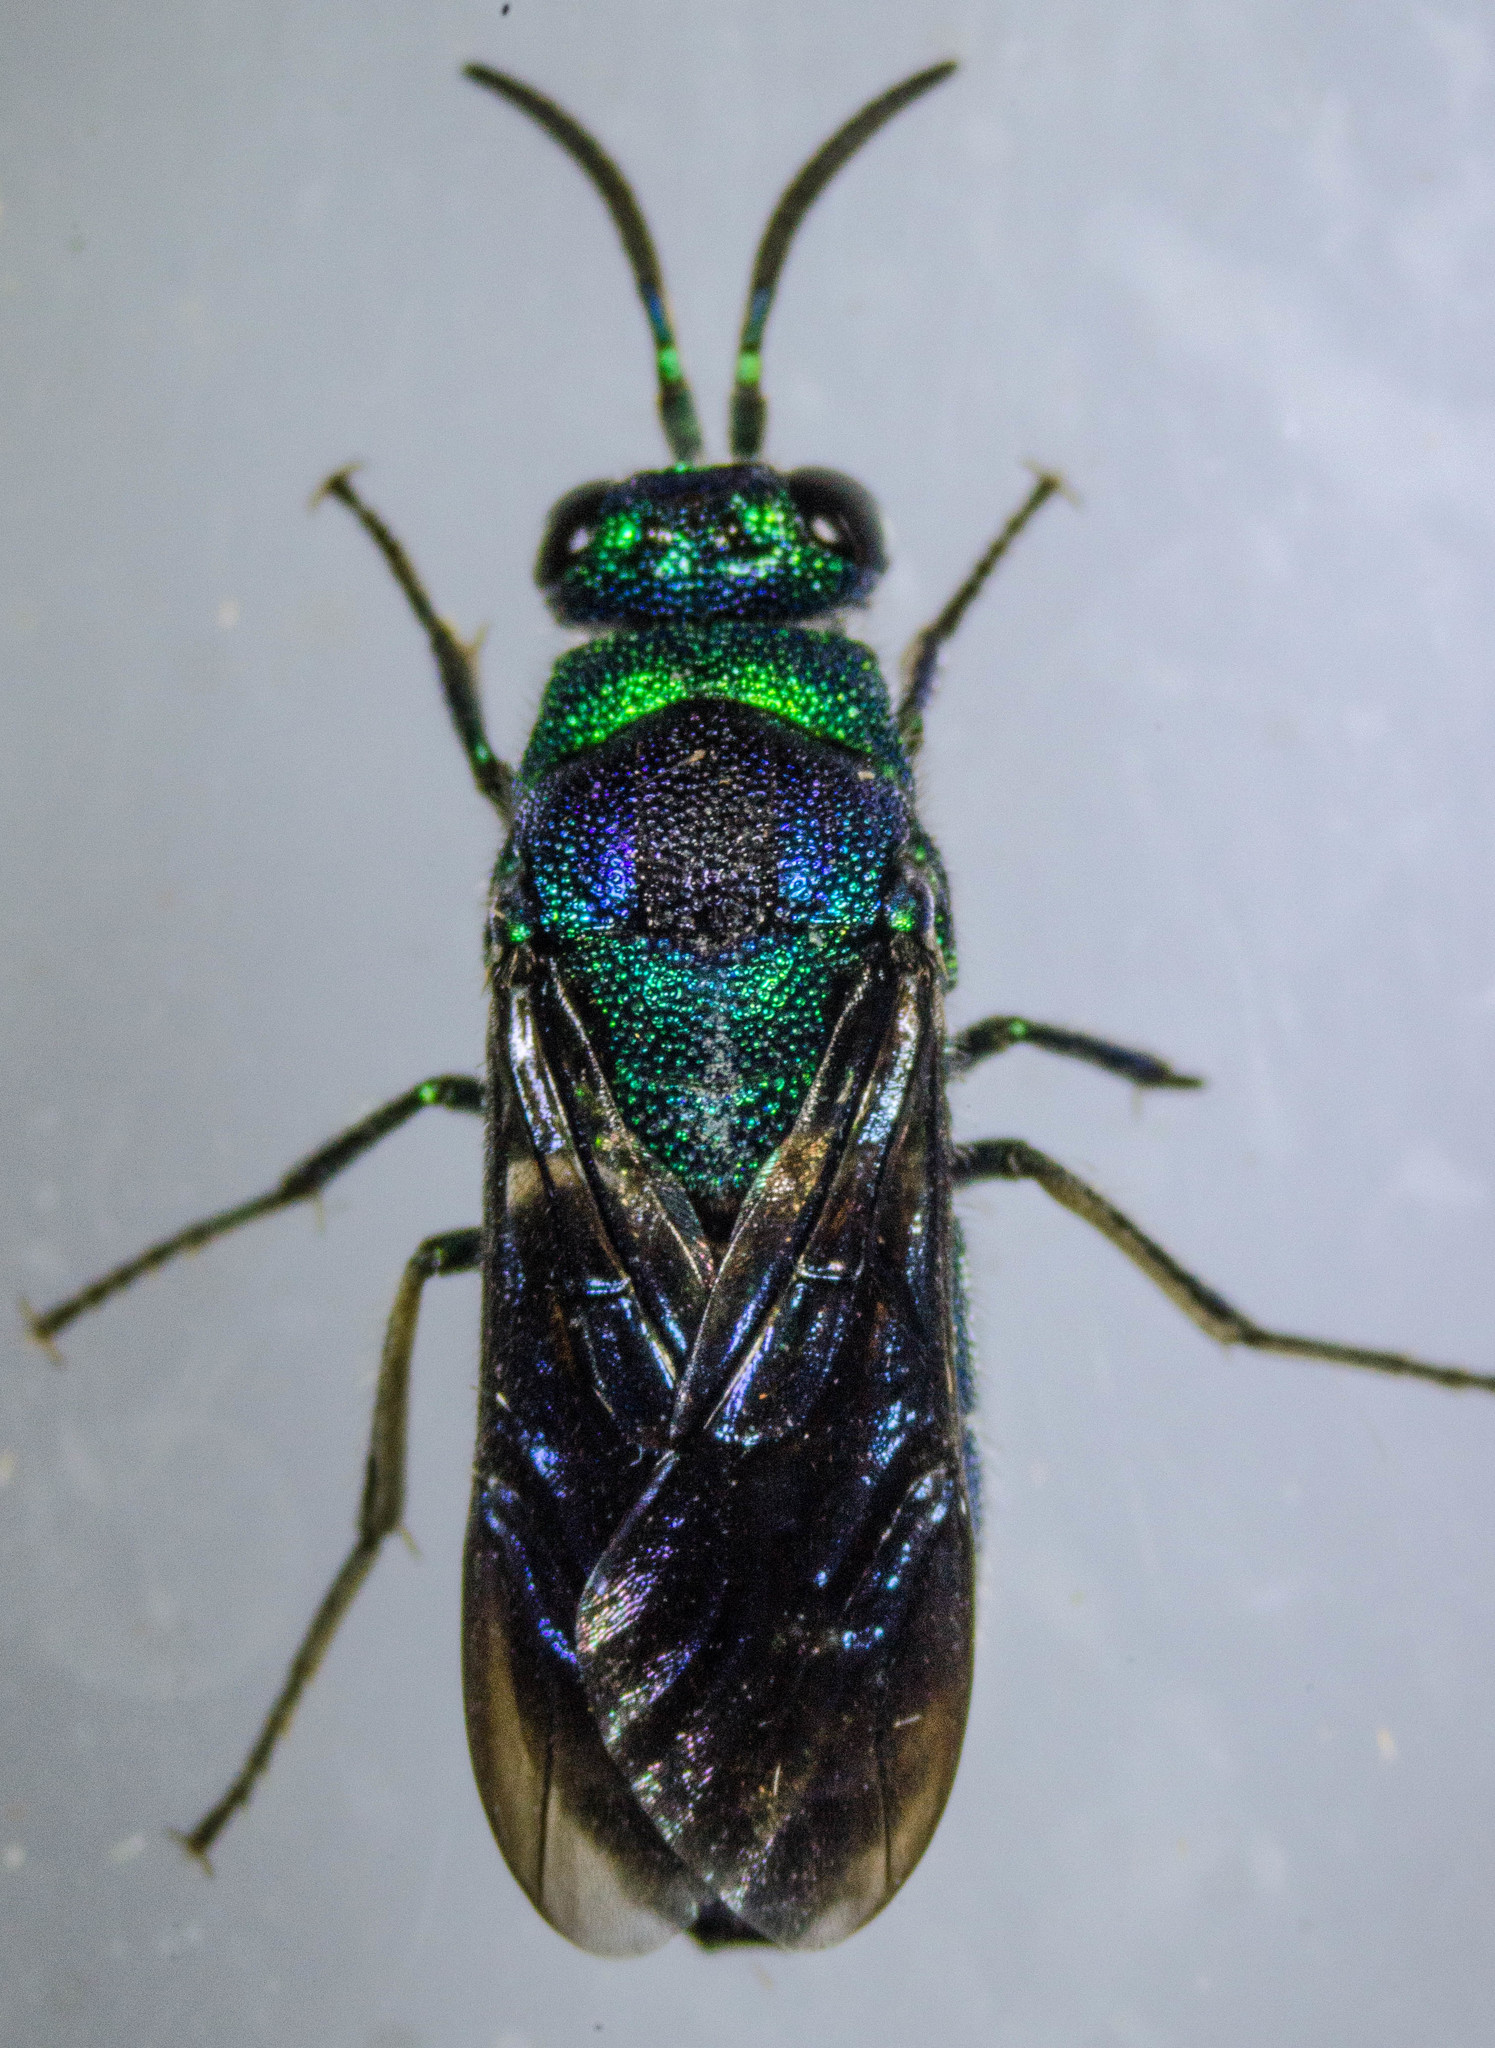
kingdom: Animalia
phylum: Arthropoda
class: Insecta
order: Hymenoptera
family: Chrysididae
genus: Chrysis
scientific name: Chrysis angolensis
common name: Cuckoo wasp
